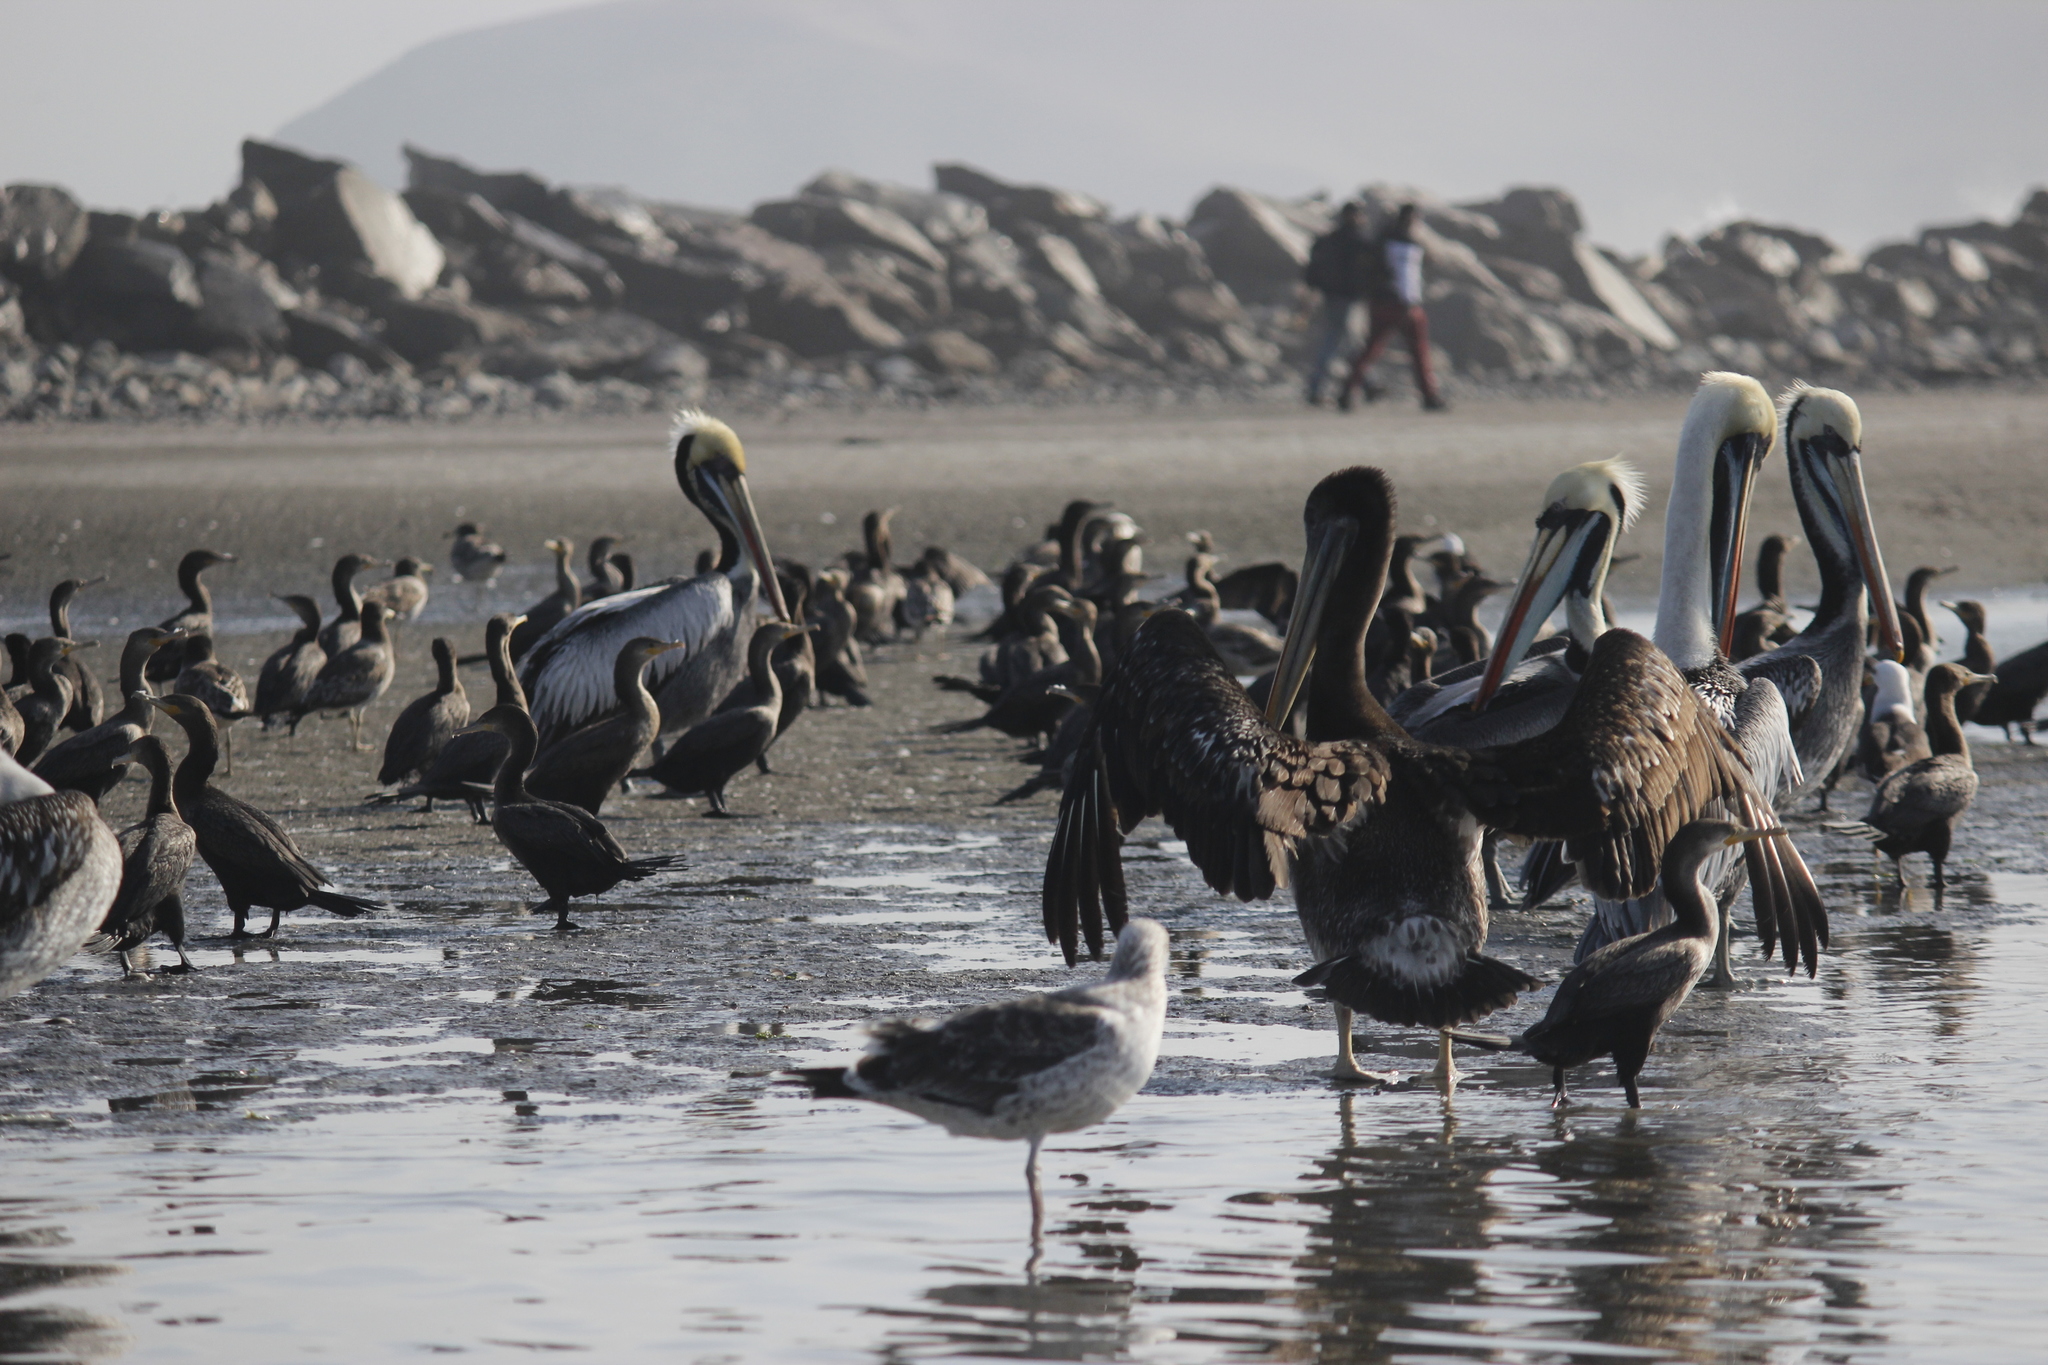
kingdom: Animalia
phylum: Chordata
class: Aves
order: Pelecaniformes
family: Pelecanidae
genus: Pelecanus
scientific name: Pelecanus thagus
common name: Peruvian pelican
